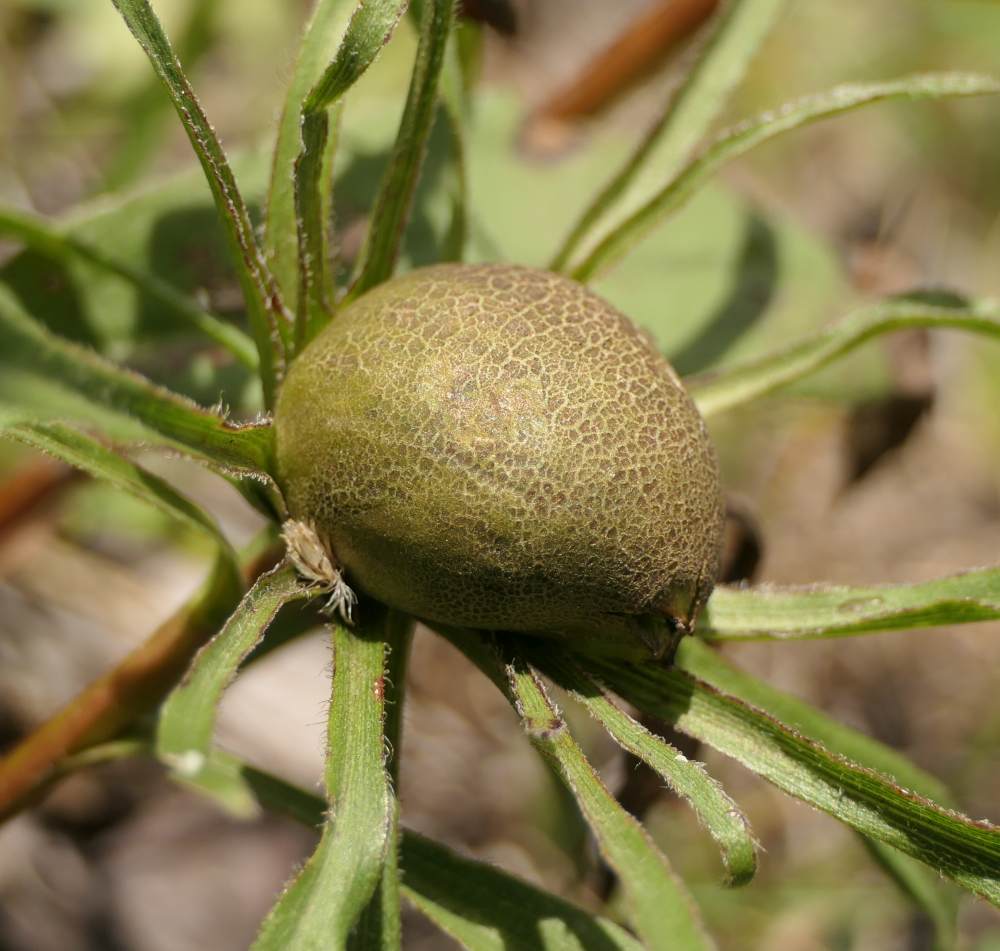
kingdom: Animalia
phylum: Arthropoda
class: Insecta
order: Diptera
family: Cecidomyiidae
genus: Rhopalomyia
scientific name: Rhopalomyia hirtipes
